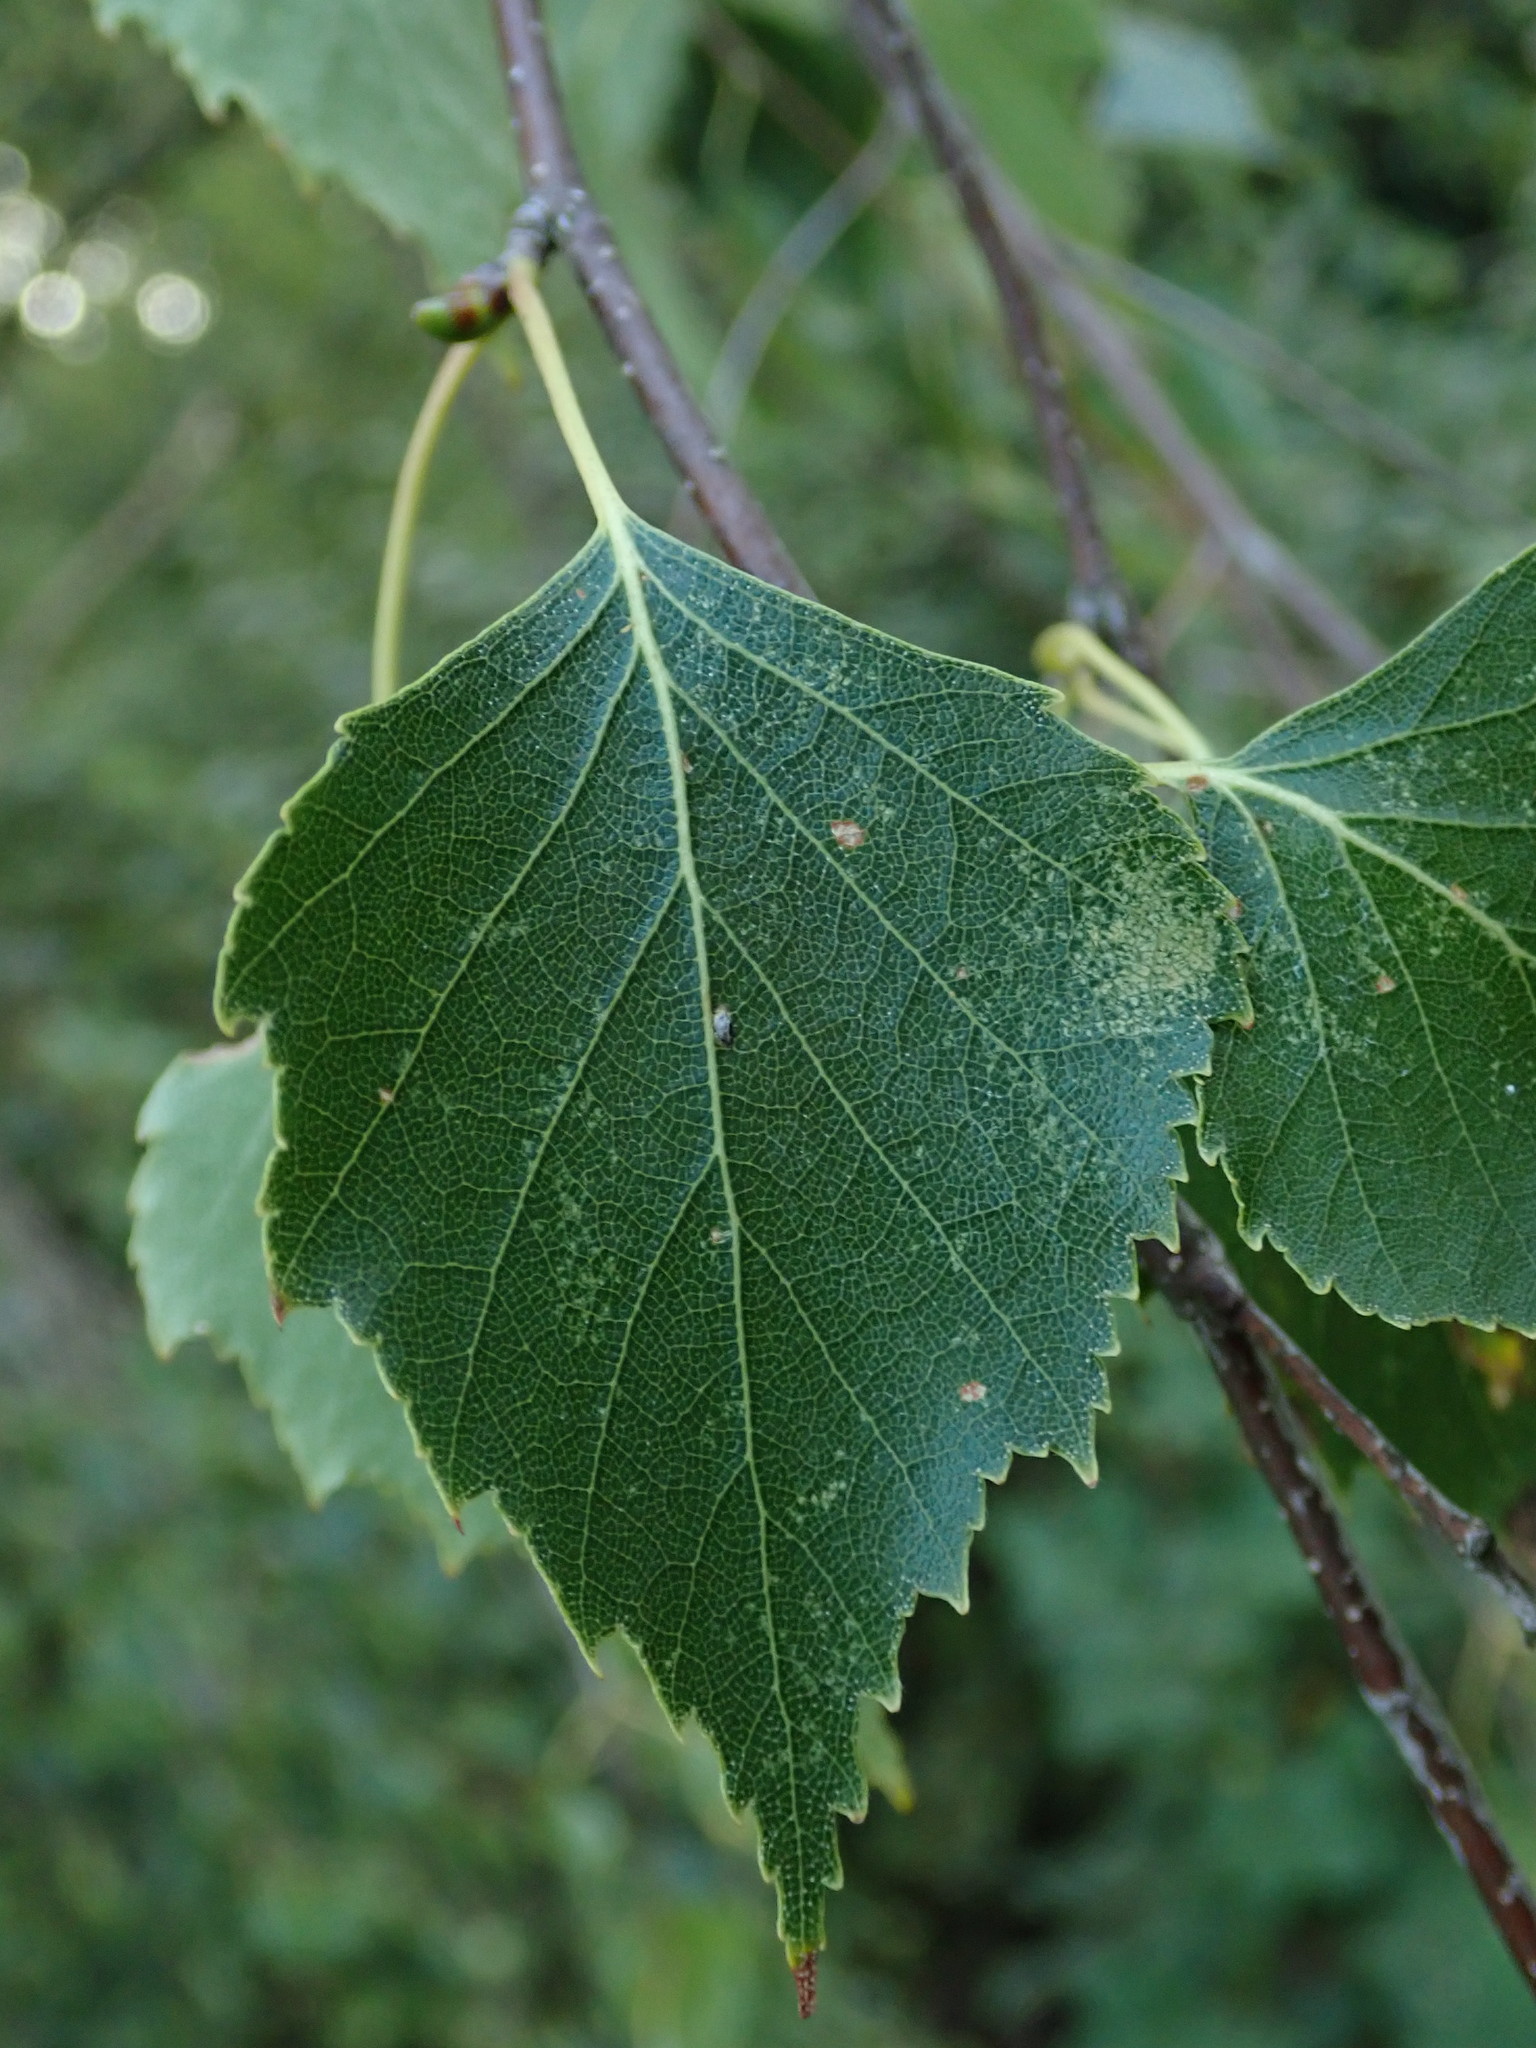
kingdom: Plantae
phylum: Tracheophyta
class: Magnoliopsida
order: Fagales
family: Betulaceae
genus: Betula
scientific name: Betula pendula
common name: Silver birch
